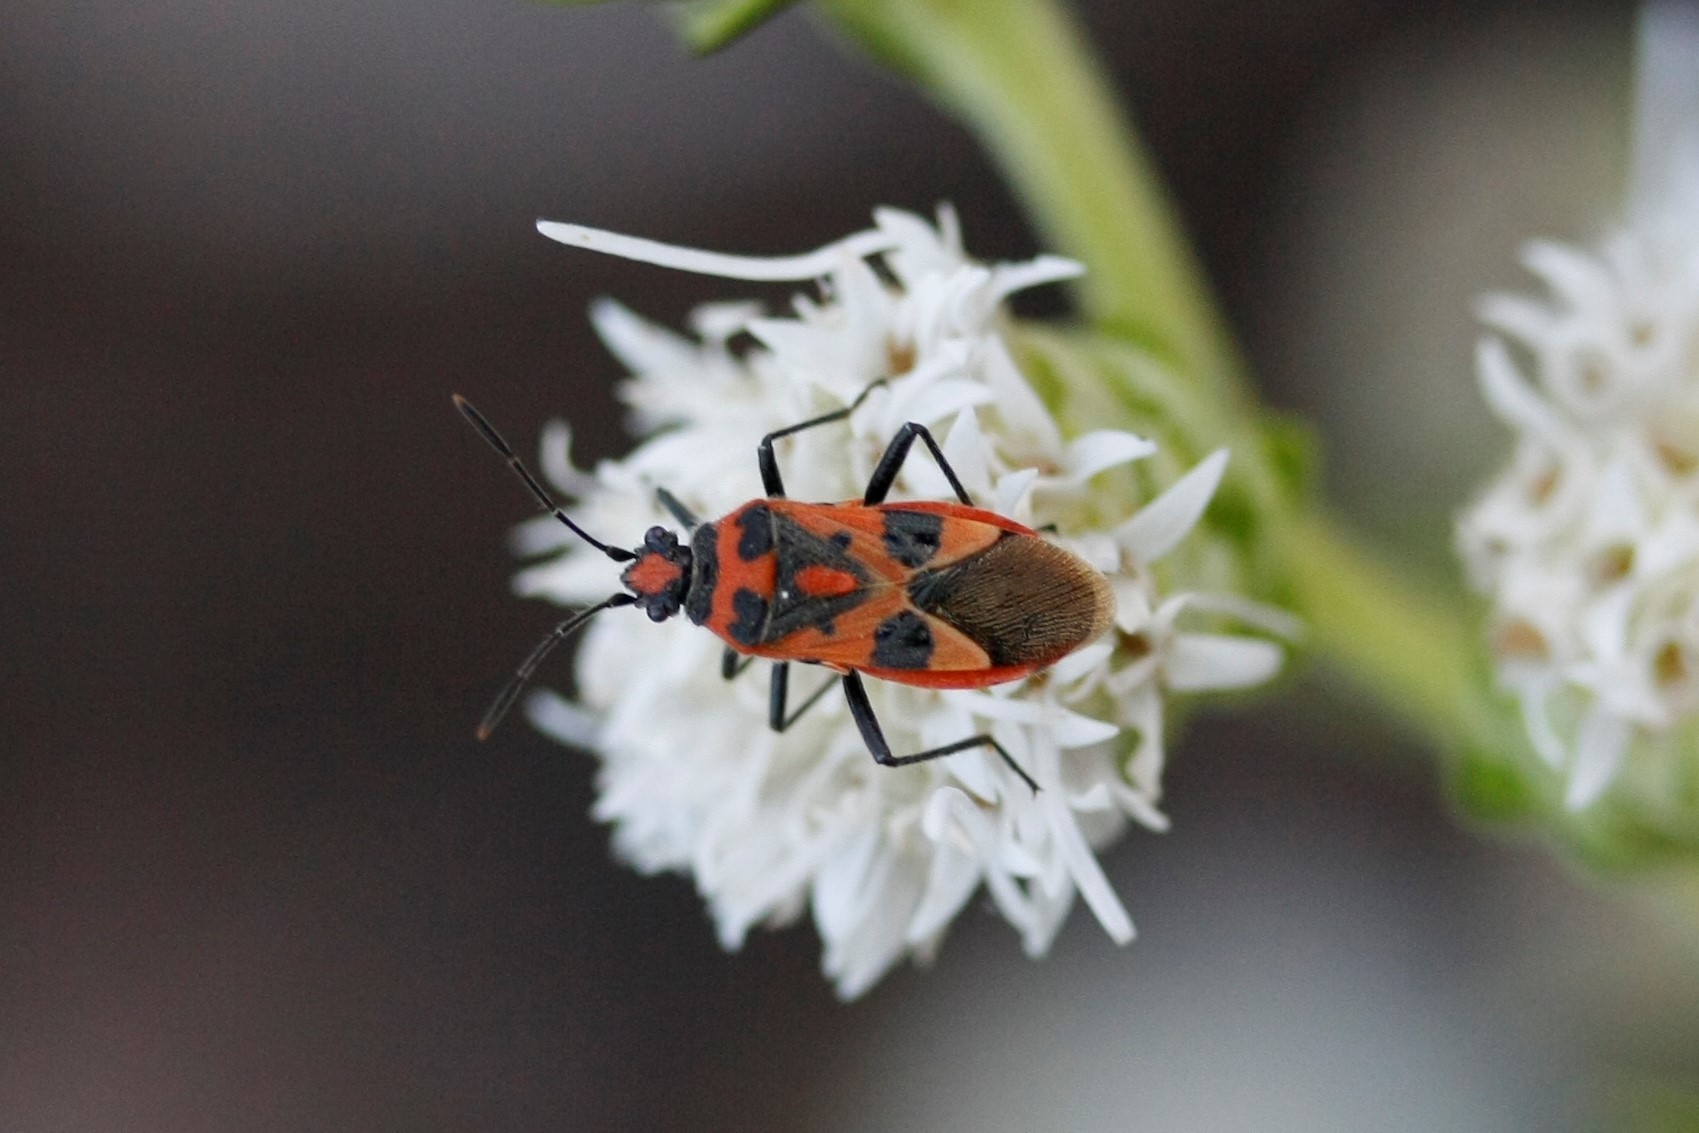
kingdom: Animalia
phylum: Arthropoda
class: Insecta
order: Hemiptera
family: Rhopalidae
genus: Corizus
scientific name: Corizus hyoscyami
